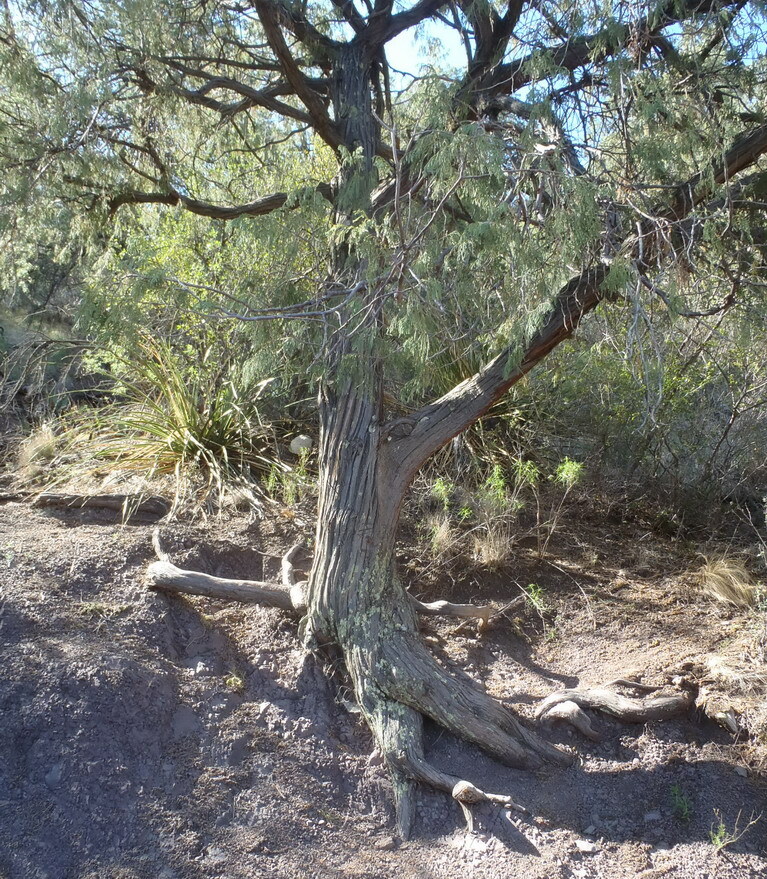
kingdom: Plantae
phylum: Tracheophyta
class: Pinopsida
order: Pinales
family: Cupressaceae
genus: Juniperus
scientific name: Juniperus flaccida
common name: Drooping juniper
